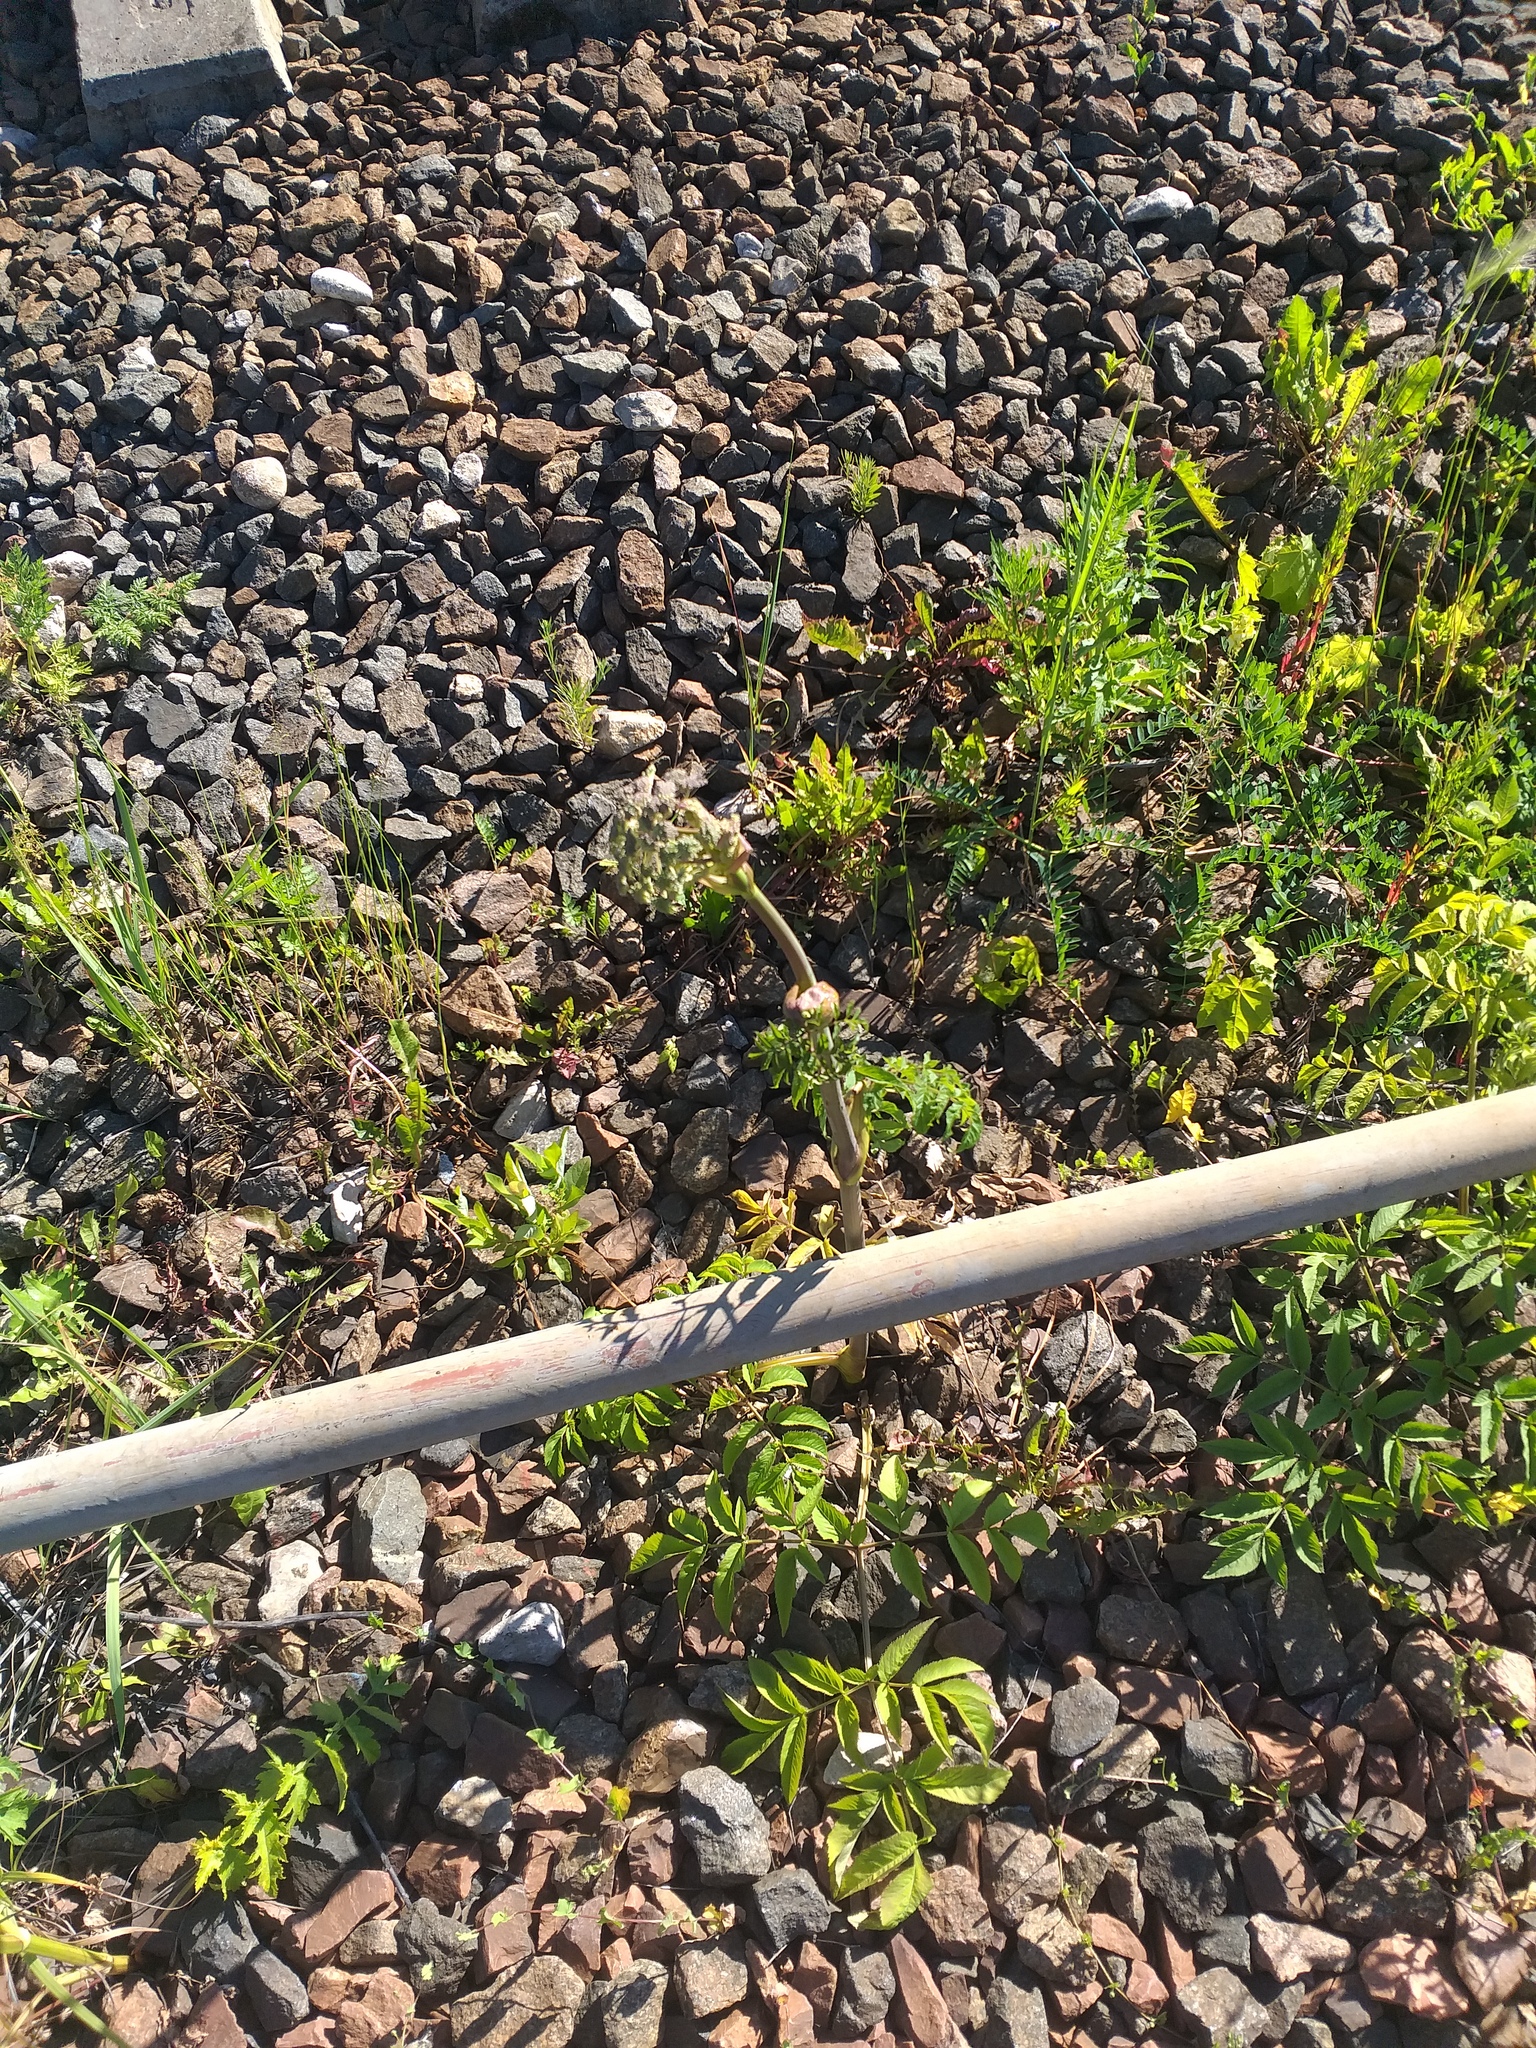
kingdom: Plantae
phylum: Tracheophyta
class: Magnoliopsida
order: Apiales
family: Apiaceae
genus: Angelica
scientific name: Angelica sylvestris
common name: Wild angelica
